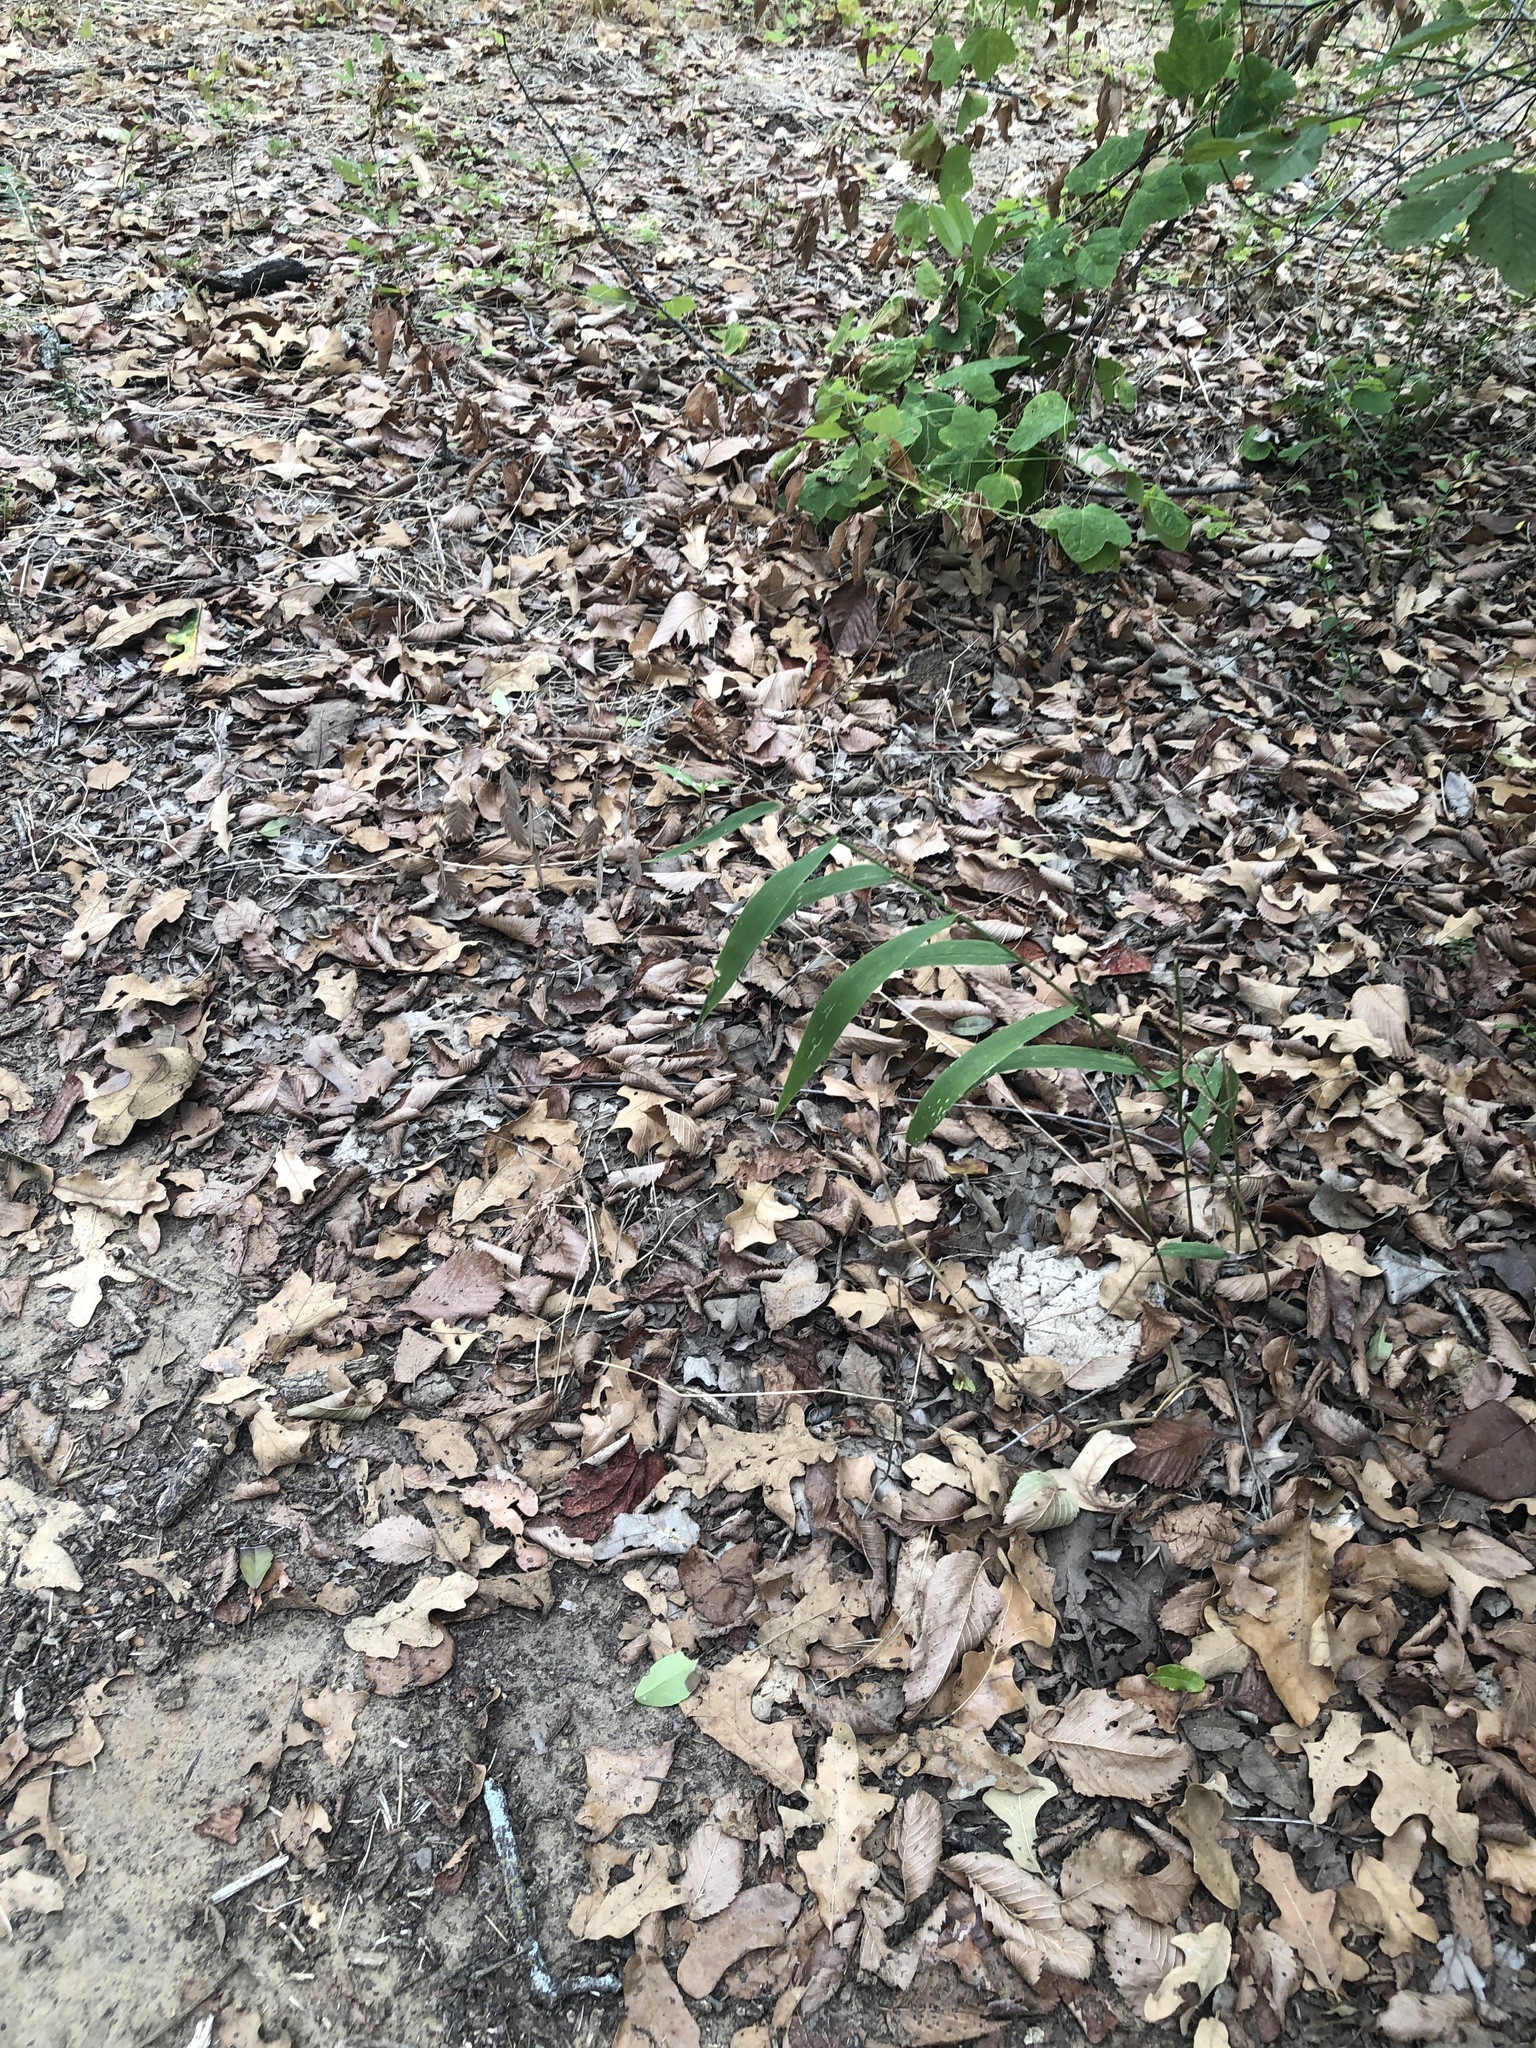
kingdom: Plantae
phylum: Tracheophyta
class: Liliopsida
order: Poales
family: Poaceae
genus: Chasmanthium
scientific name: Chasmanthium latifolium
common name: Broad-leaved chasmanthium
